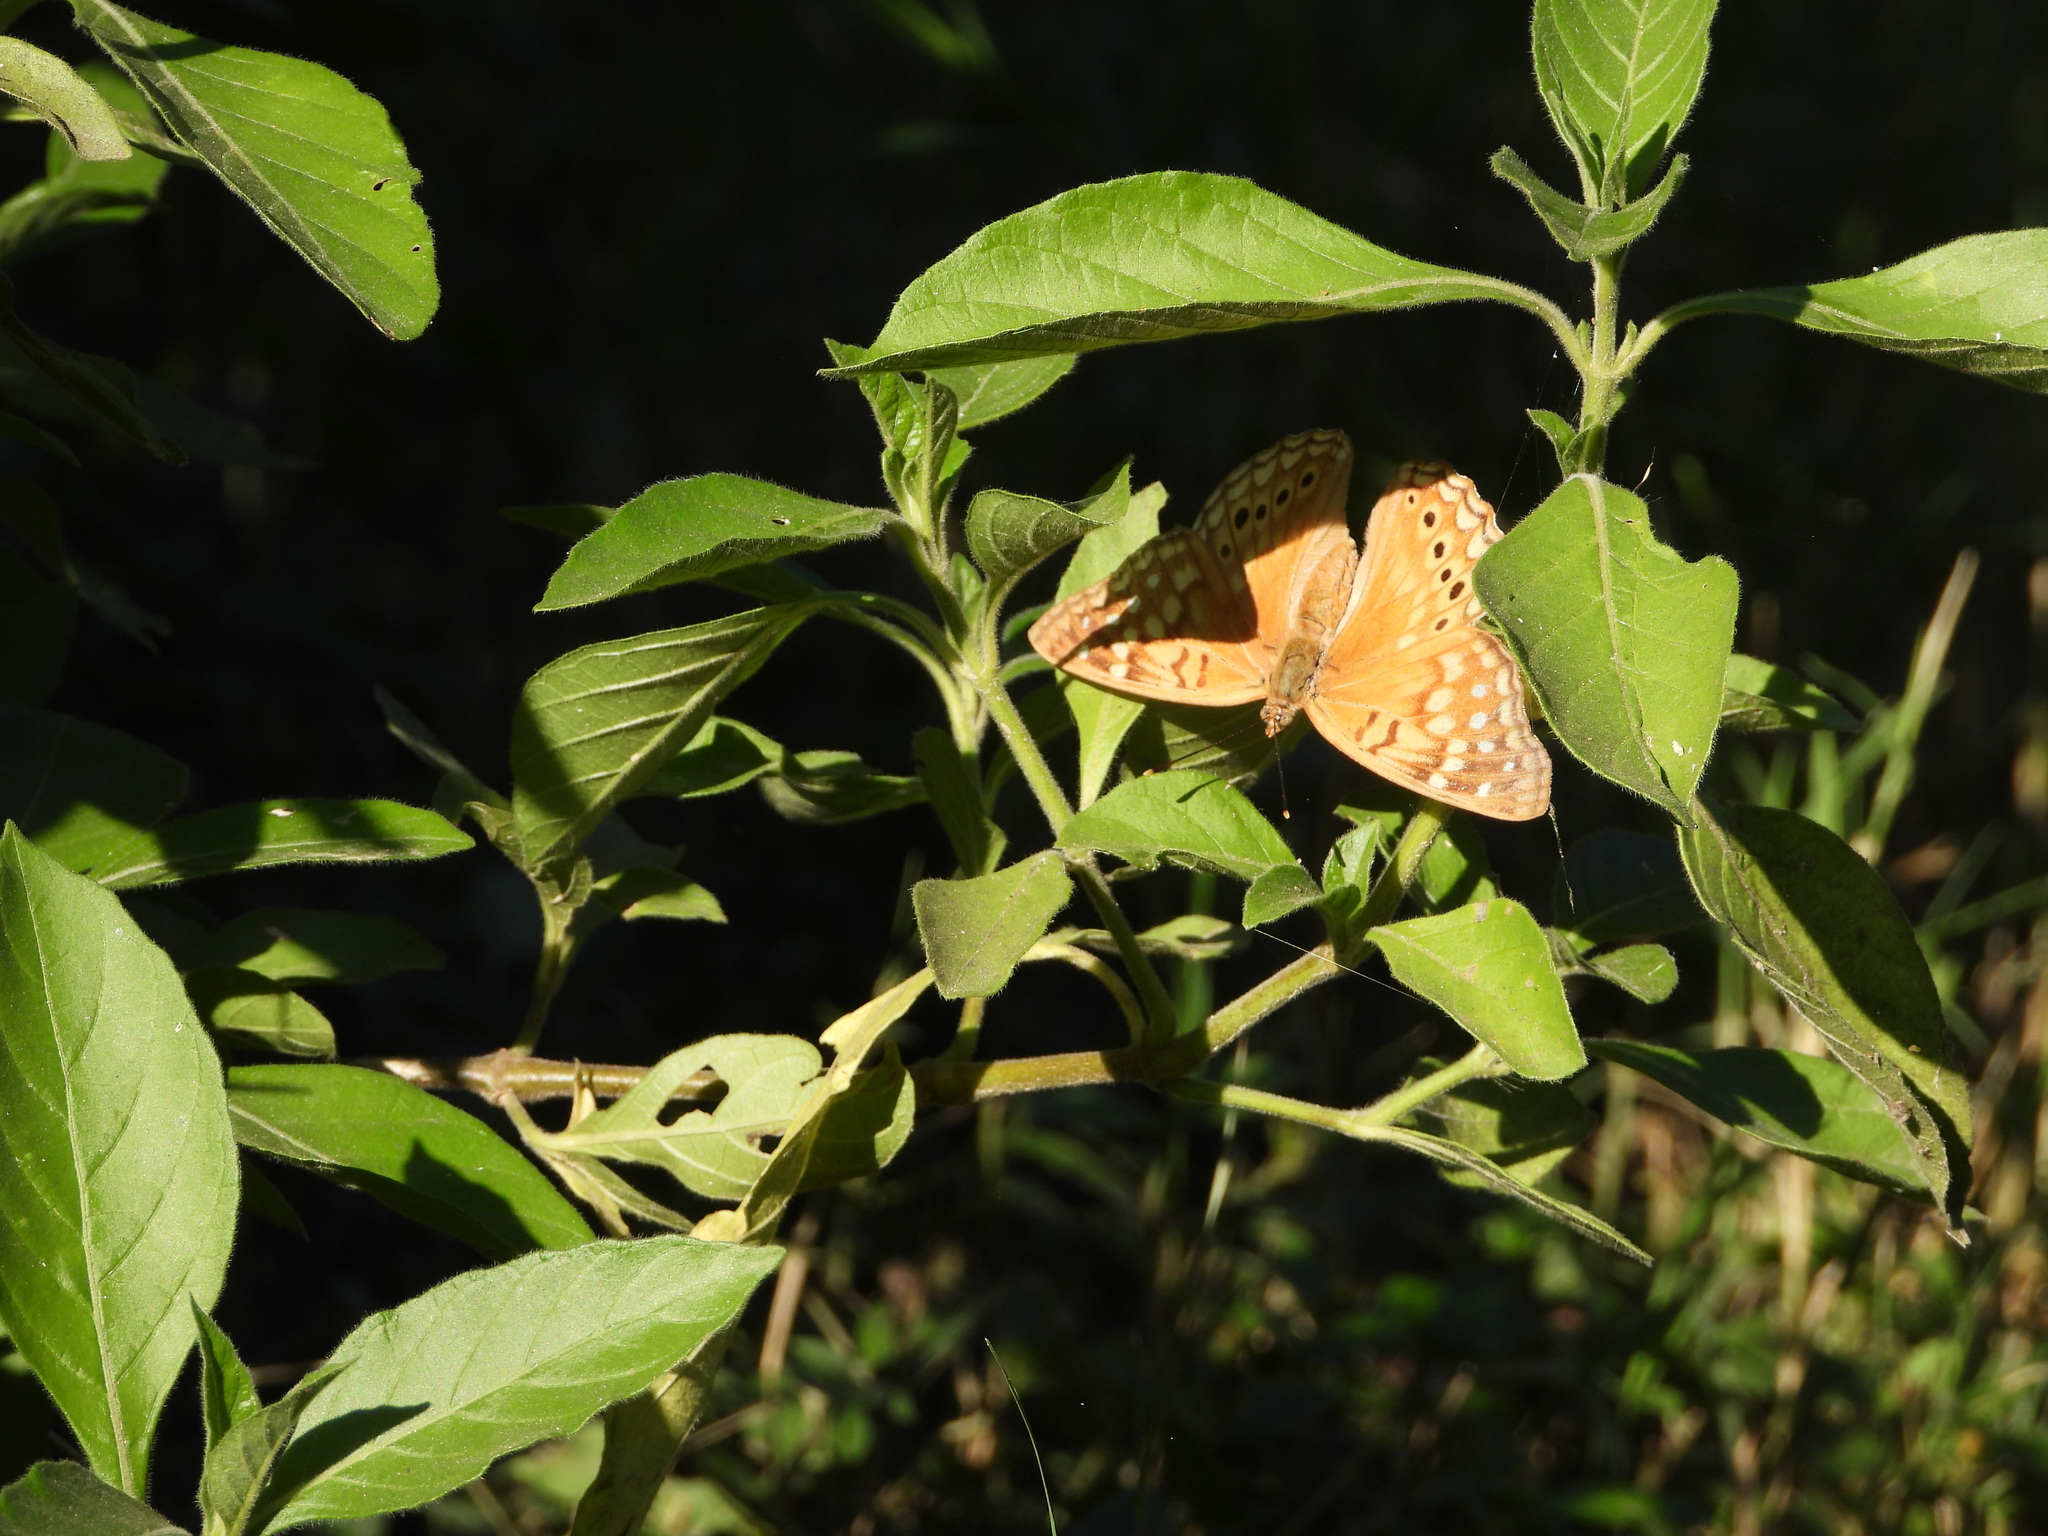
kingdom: Animalia
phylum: Arthropoda
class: Insecta
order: Lepidoptera
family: Nymphalidae
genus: Asterocampa
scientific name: Asterocampa clyton
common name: Tawny emperor
